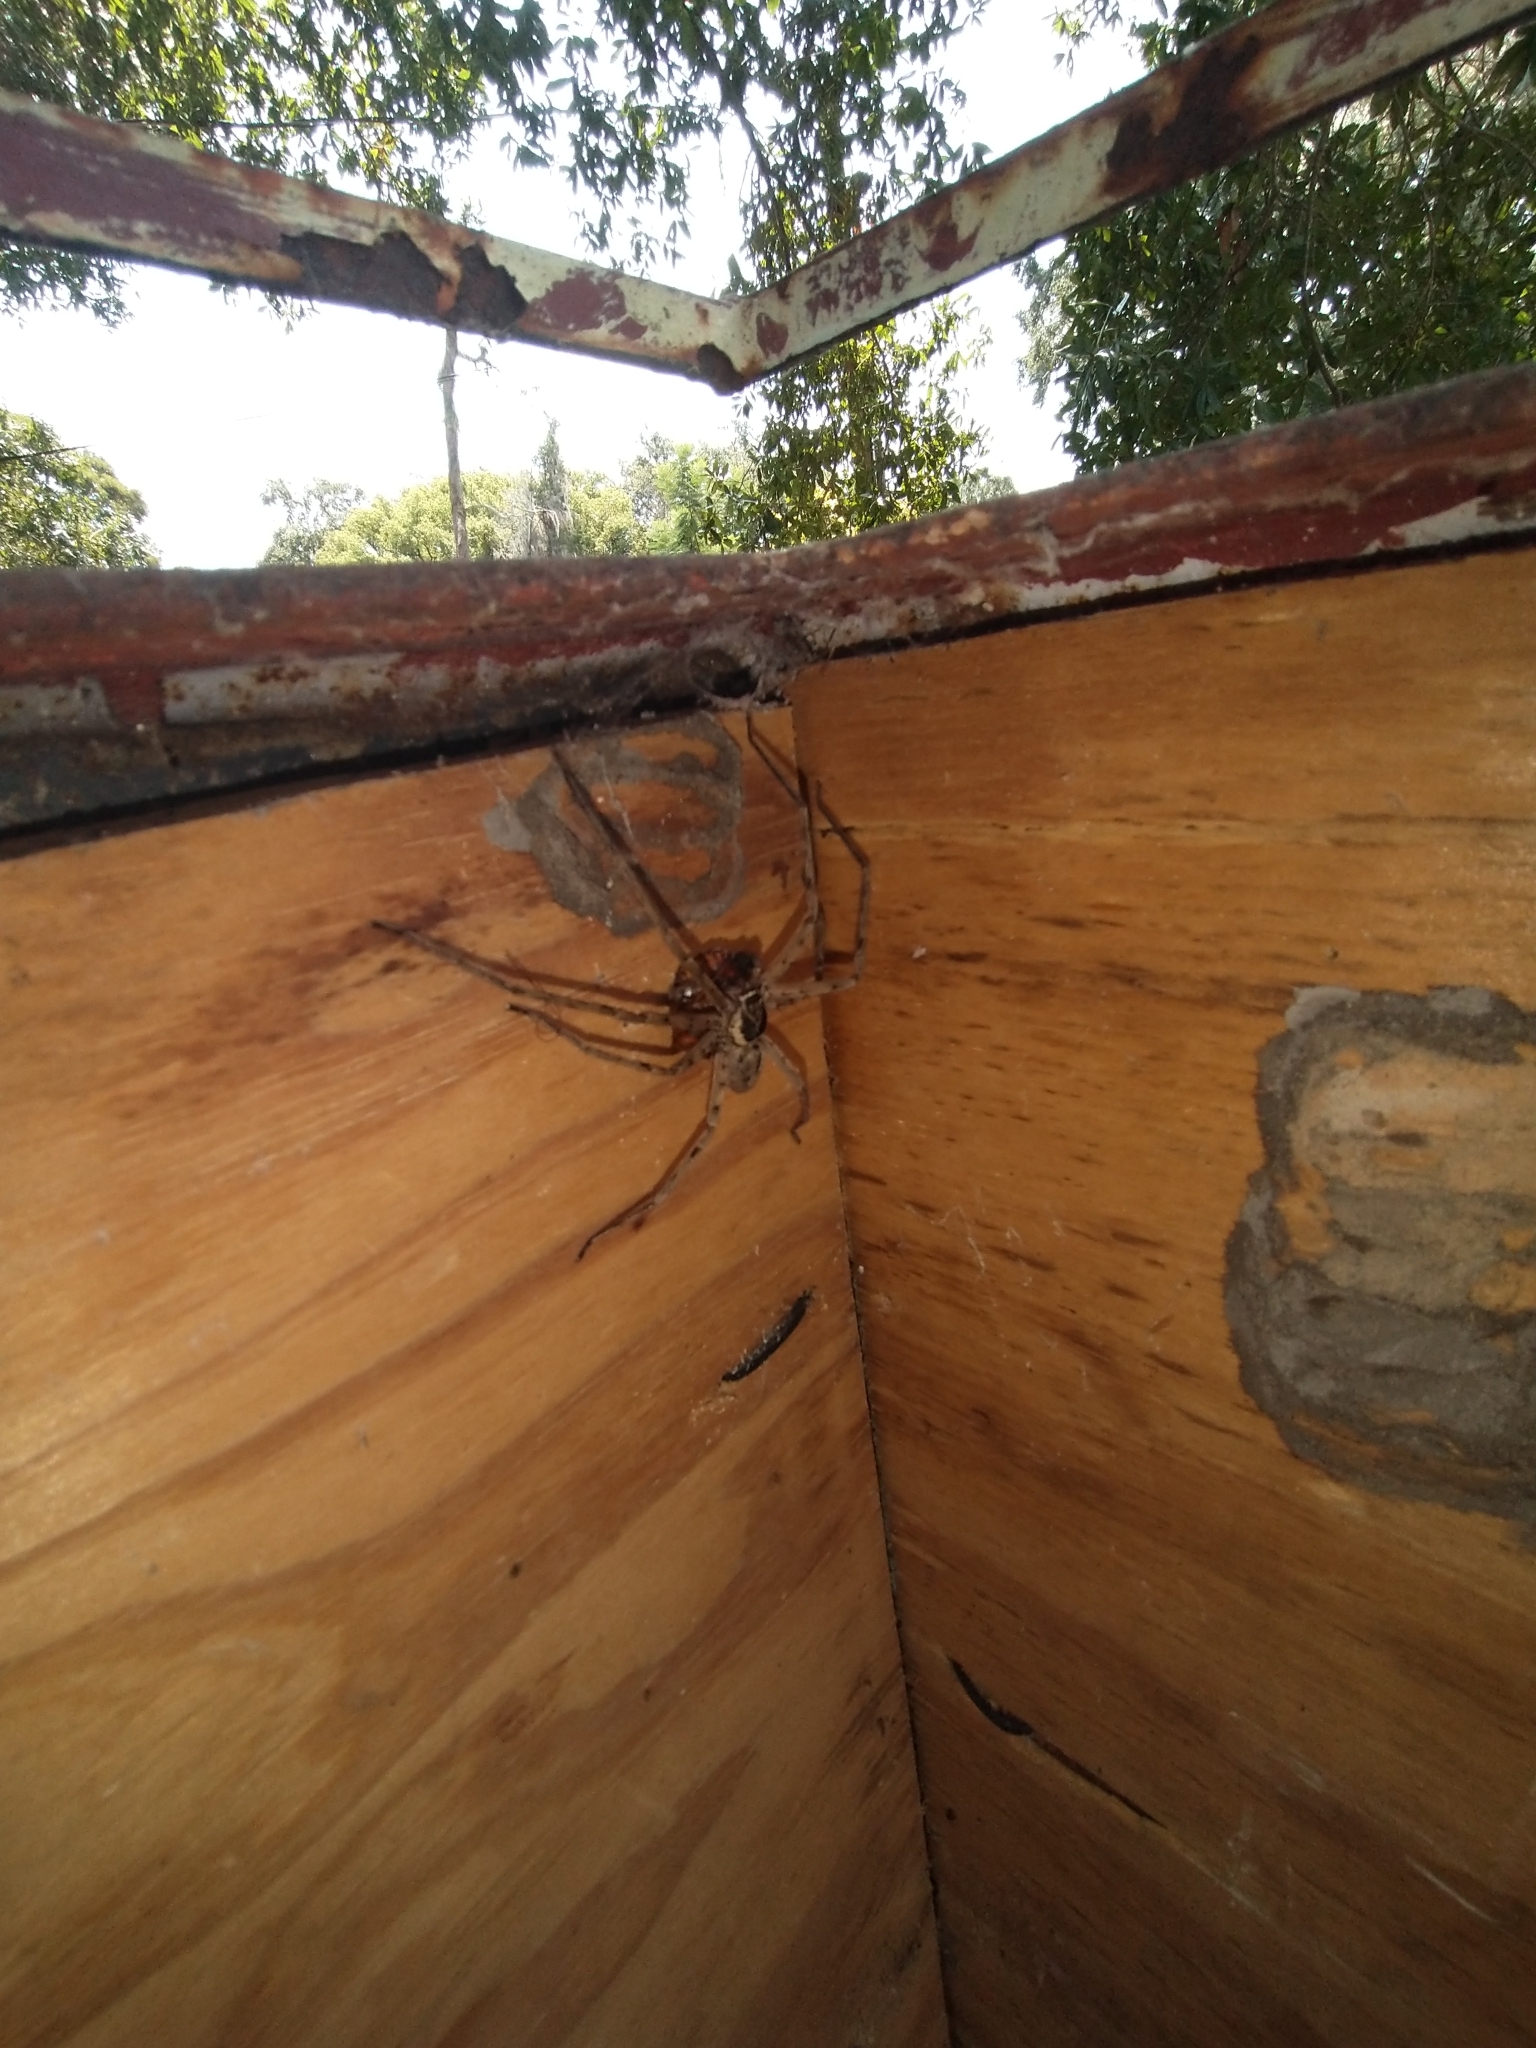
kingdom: Animalia
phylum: Arthropoda
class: Arachnida
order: Araneae
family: Sparassidae
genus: Heteropoda
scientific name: Heteropoda venatoria
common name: Huntsman spider
